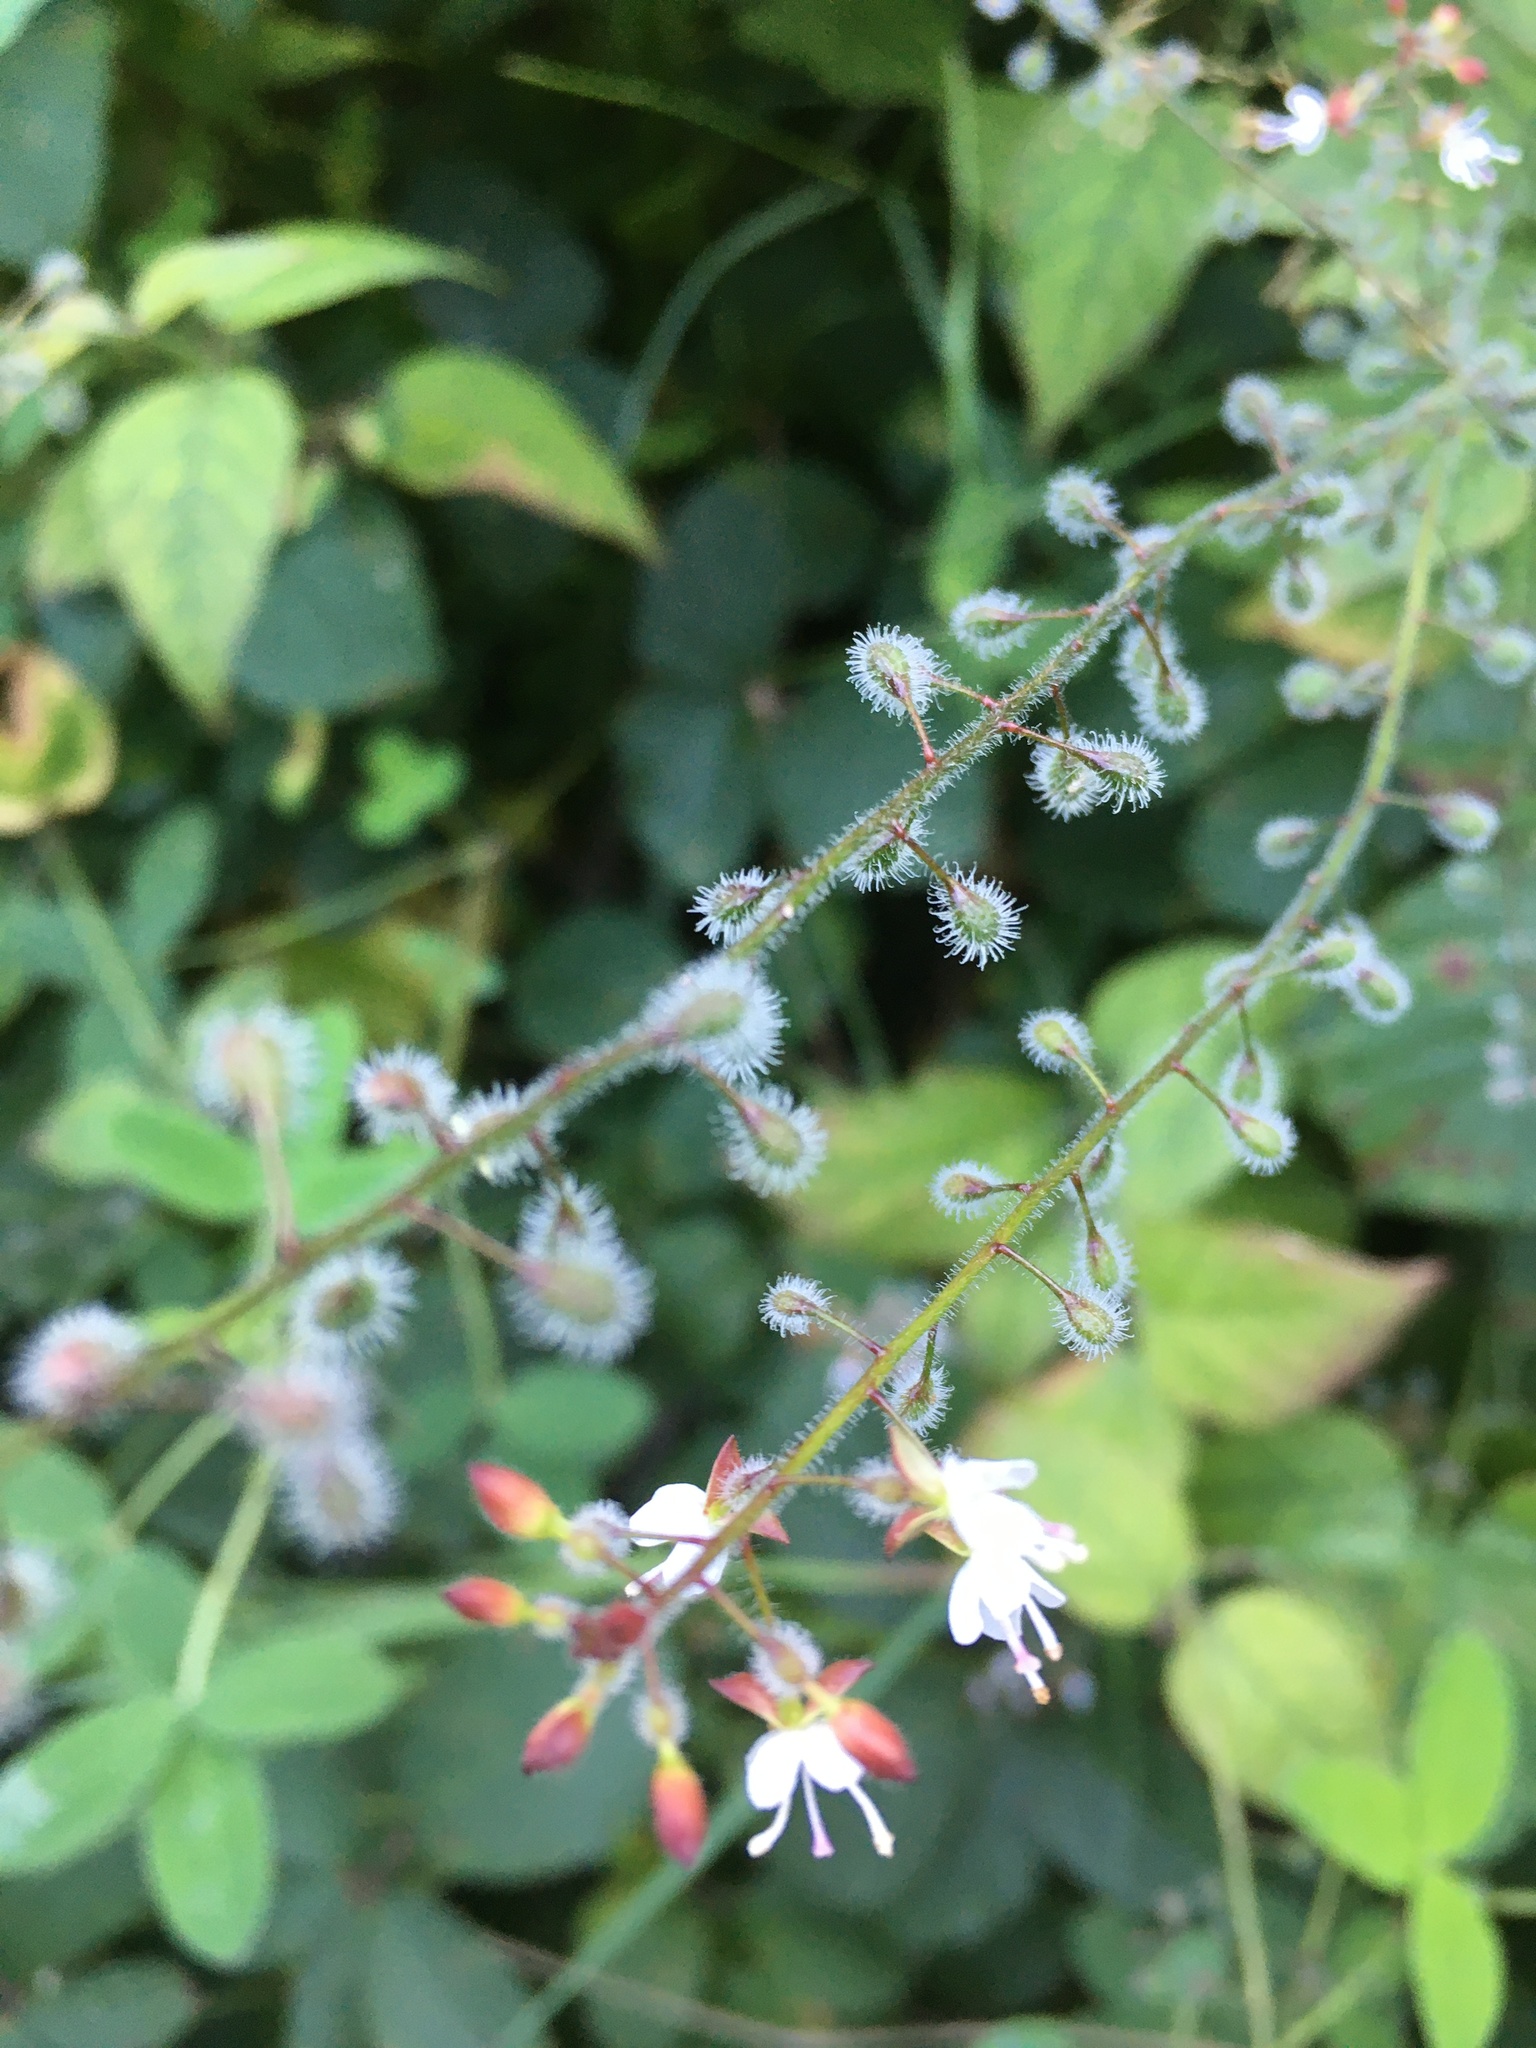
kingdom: Plantae
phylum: Tracheophyta
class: Magnoliopsida
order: Myrtales
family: Onagraceae
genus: Circaea
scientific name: Circaea lutetiana
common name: Enchanter's-nightshade
